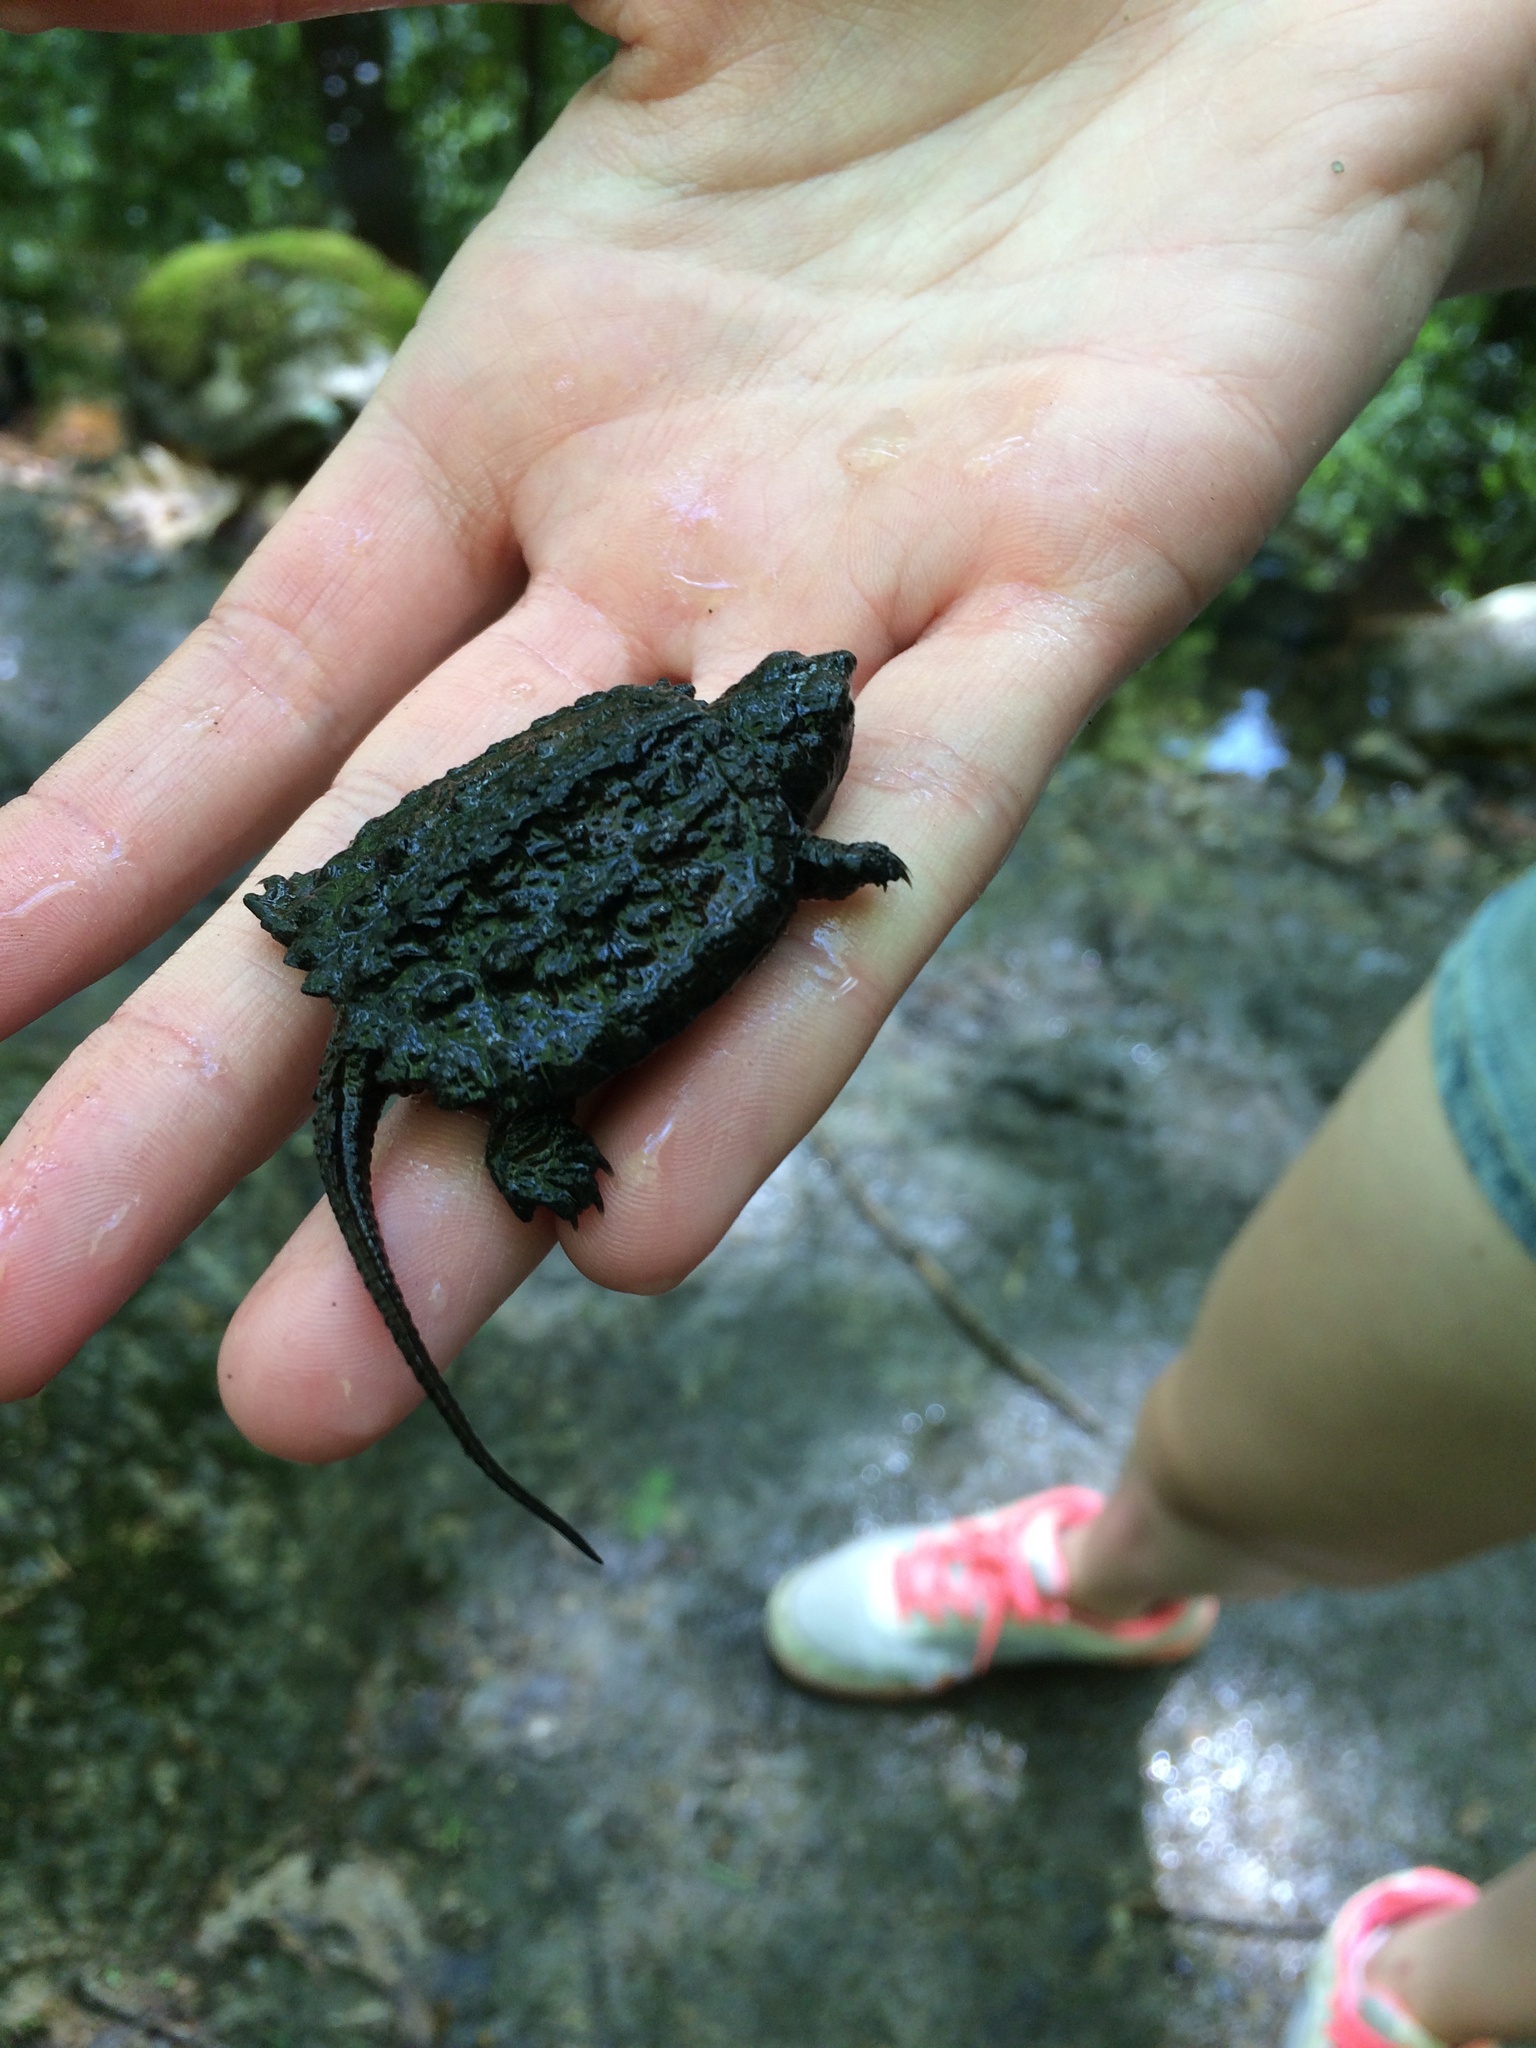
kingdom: Animalia
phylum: Chordata
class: Testudines
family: Chelydridae
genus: Chelydra
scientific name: Chelydra serpentina
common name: Common snapping turtle
